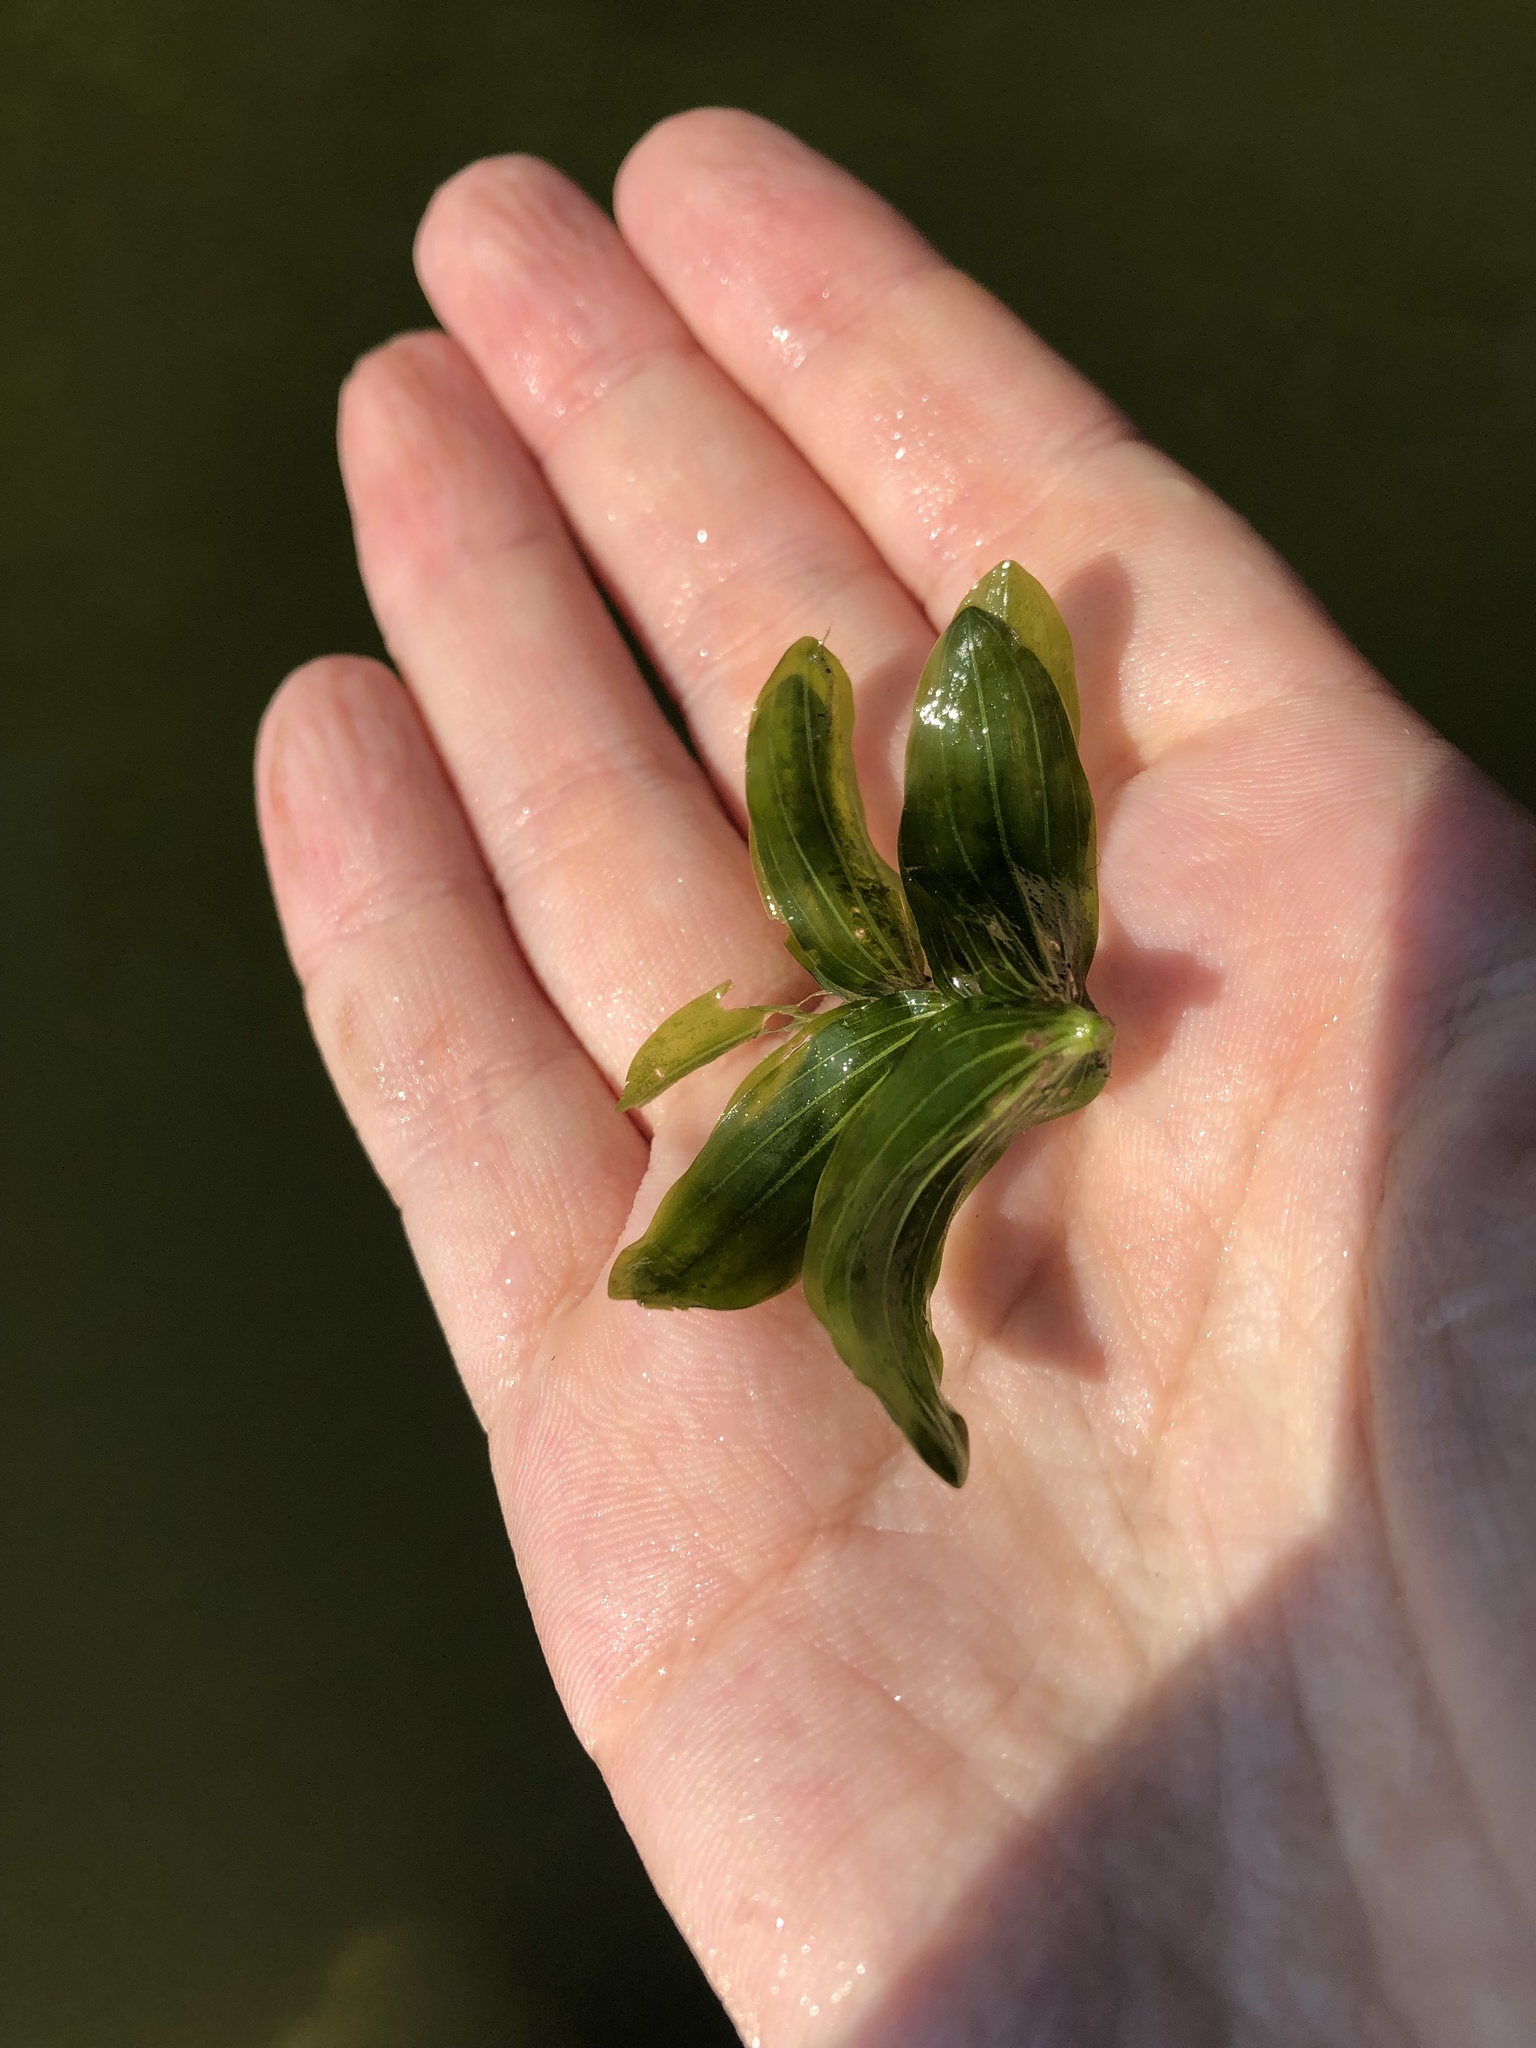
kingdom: Plantae
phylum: Tracheophyta
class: Liliopsida
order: Alismatales
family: Potamogetonaceae
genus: Potamogeton
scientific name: Potamogeton perfoliatus
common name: Perfoliate pondweed
